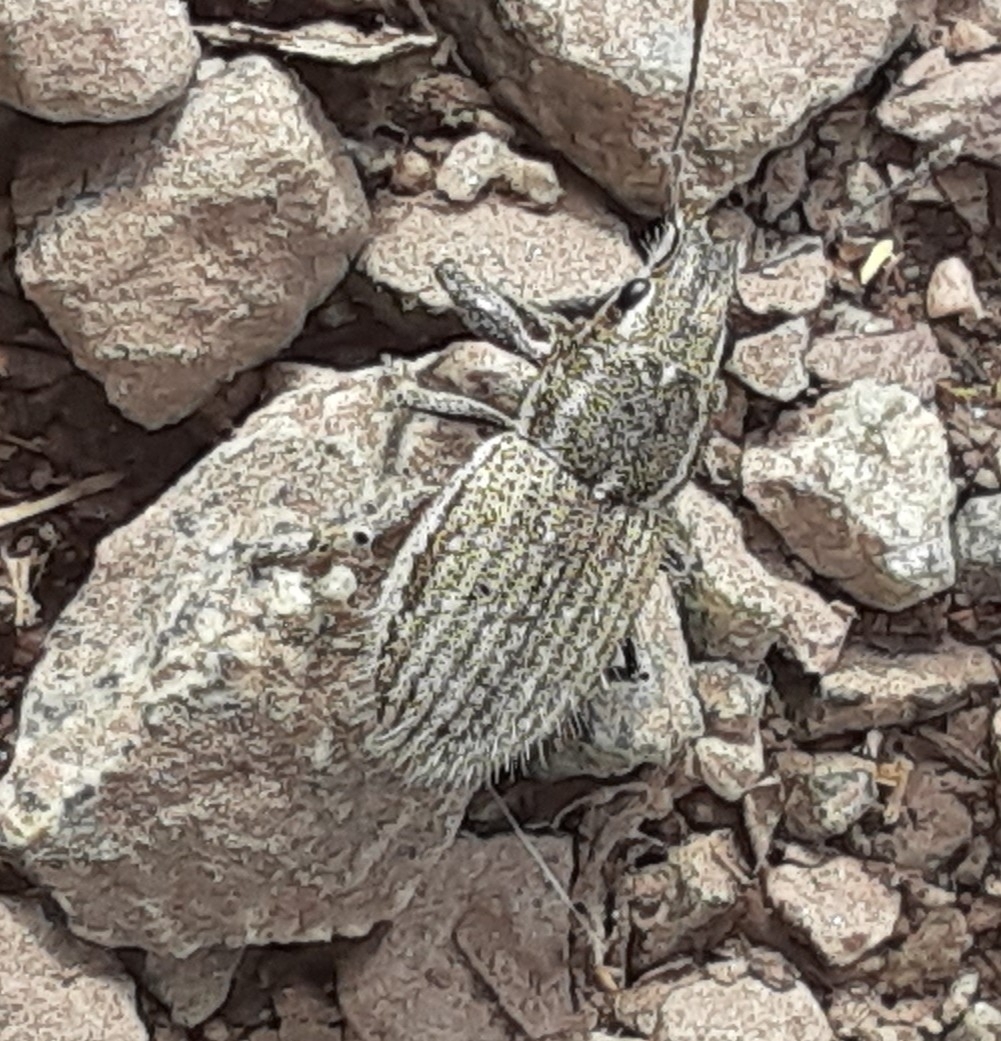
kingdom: Animalia
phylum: Arthropoda
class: Insecta
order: Coleoptera
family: Curculionidae
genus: Naupactus
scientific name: Naupactus leucoloma
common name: Whitefringed beetle
